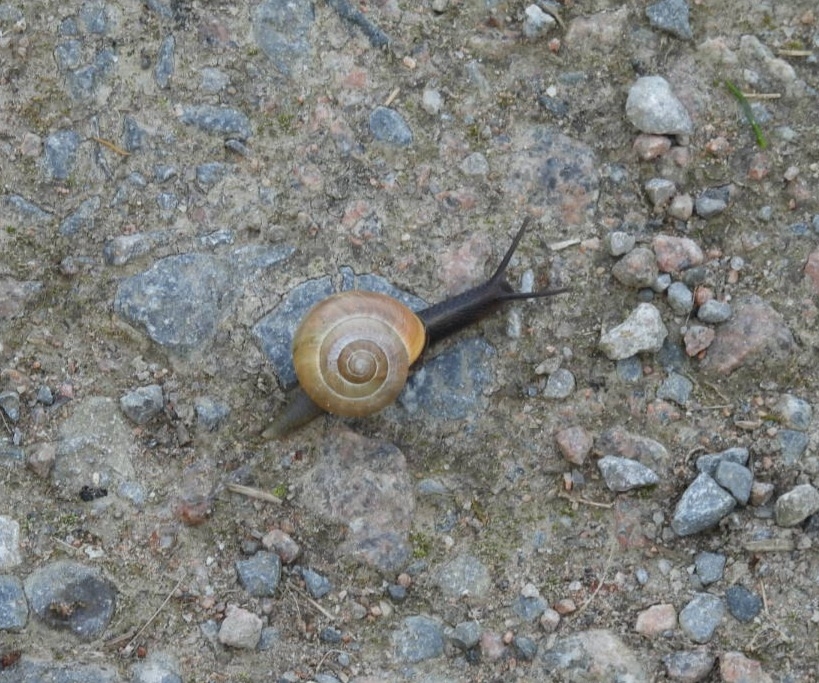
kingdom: Animalia
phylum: Mollusca
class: Gastropoda
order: Stylommatophora
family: Helicidae
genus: Cepaea
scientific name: Cepaea nemoralis
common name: Grovesnail
